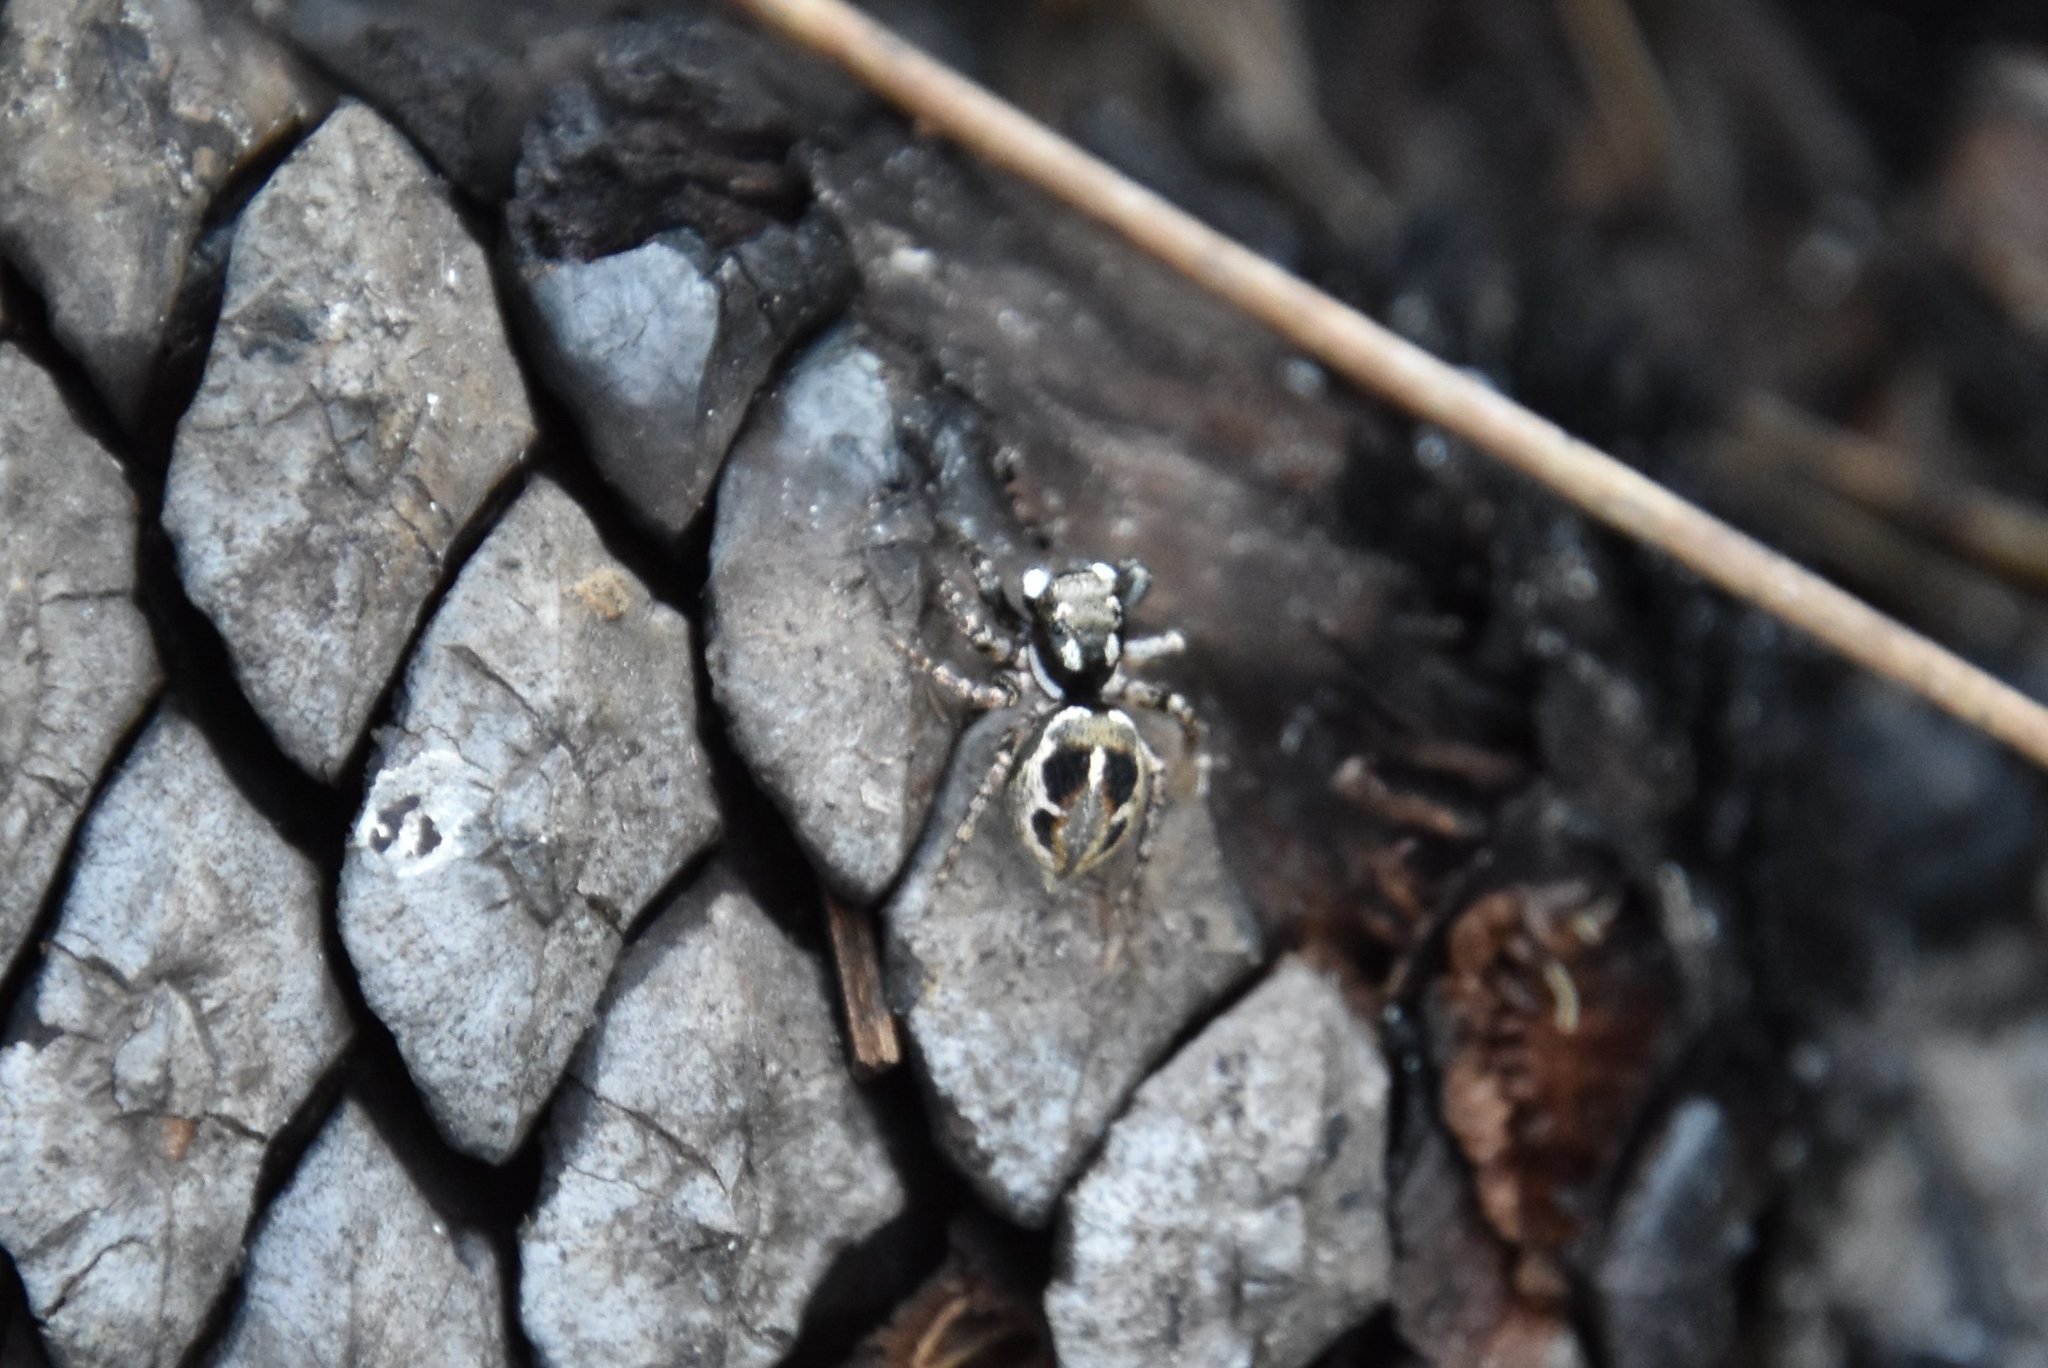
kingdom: Animalia
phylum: Arthropoda
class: Arachnida
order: Araneae
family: Salticidae
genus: Anasaitis
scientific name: Anasaitis canosa
